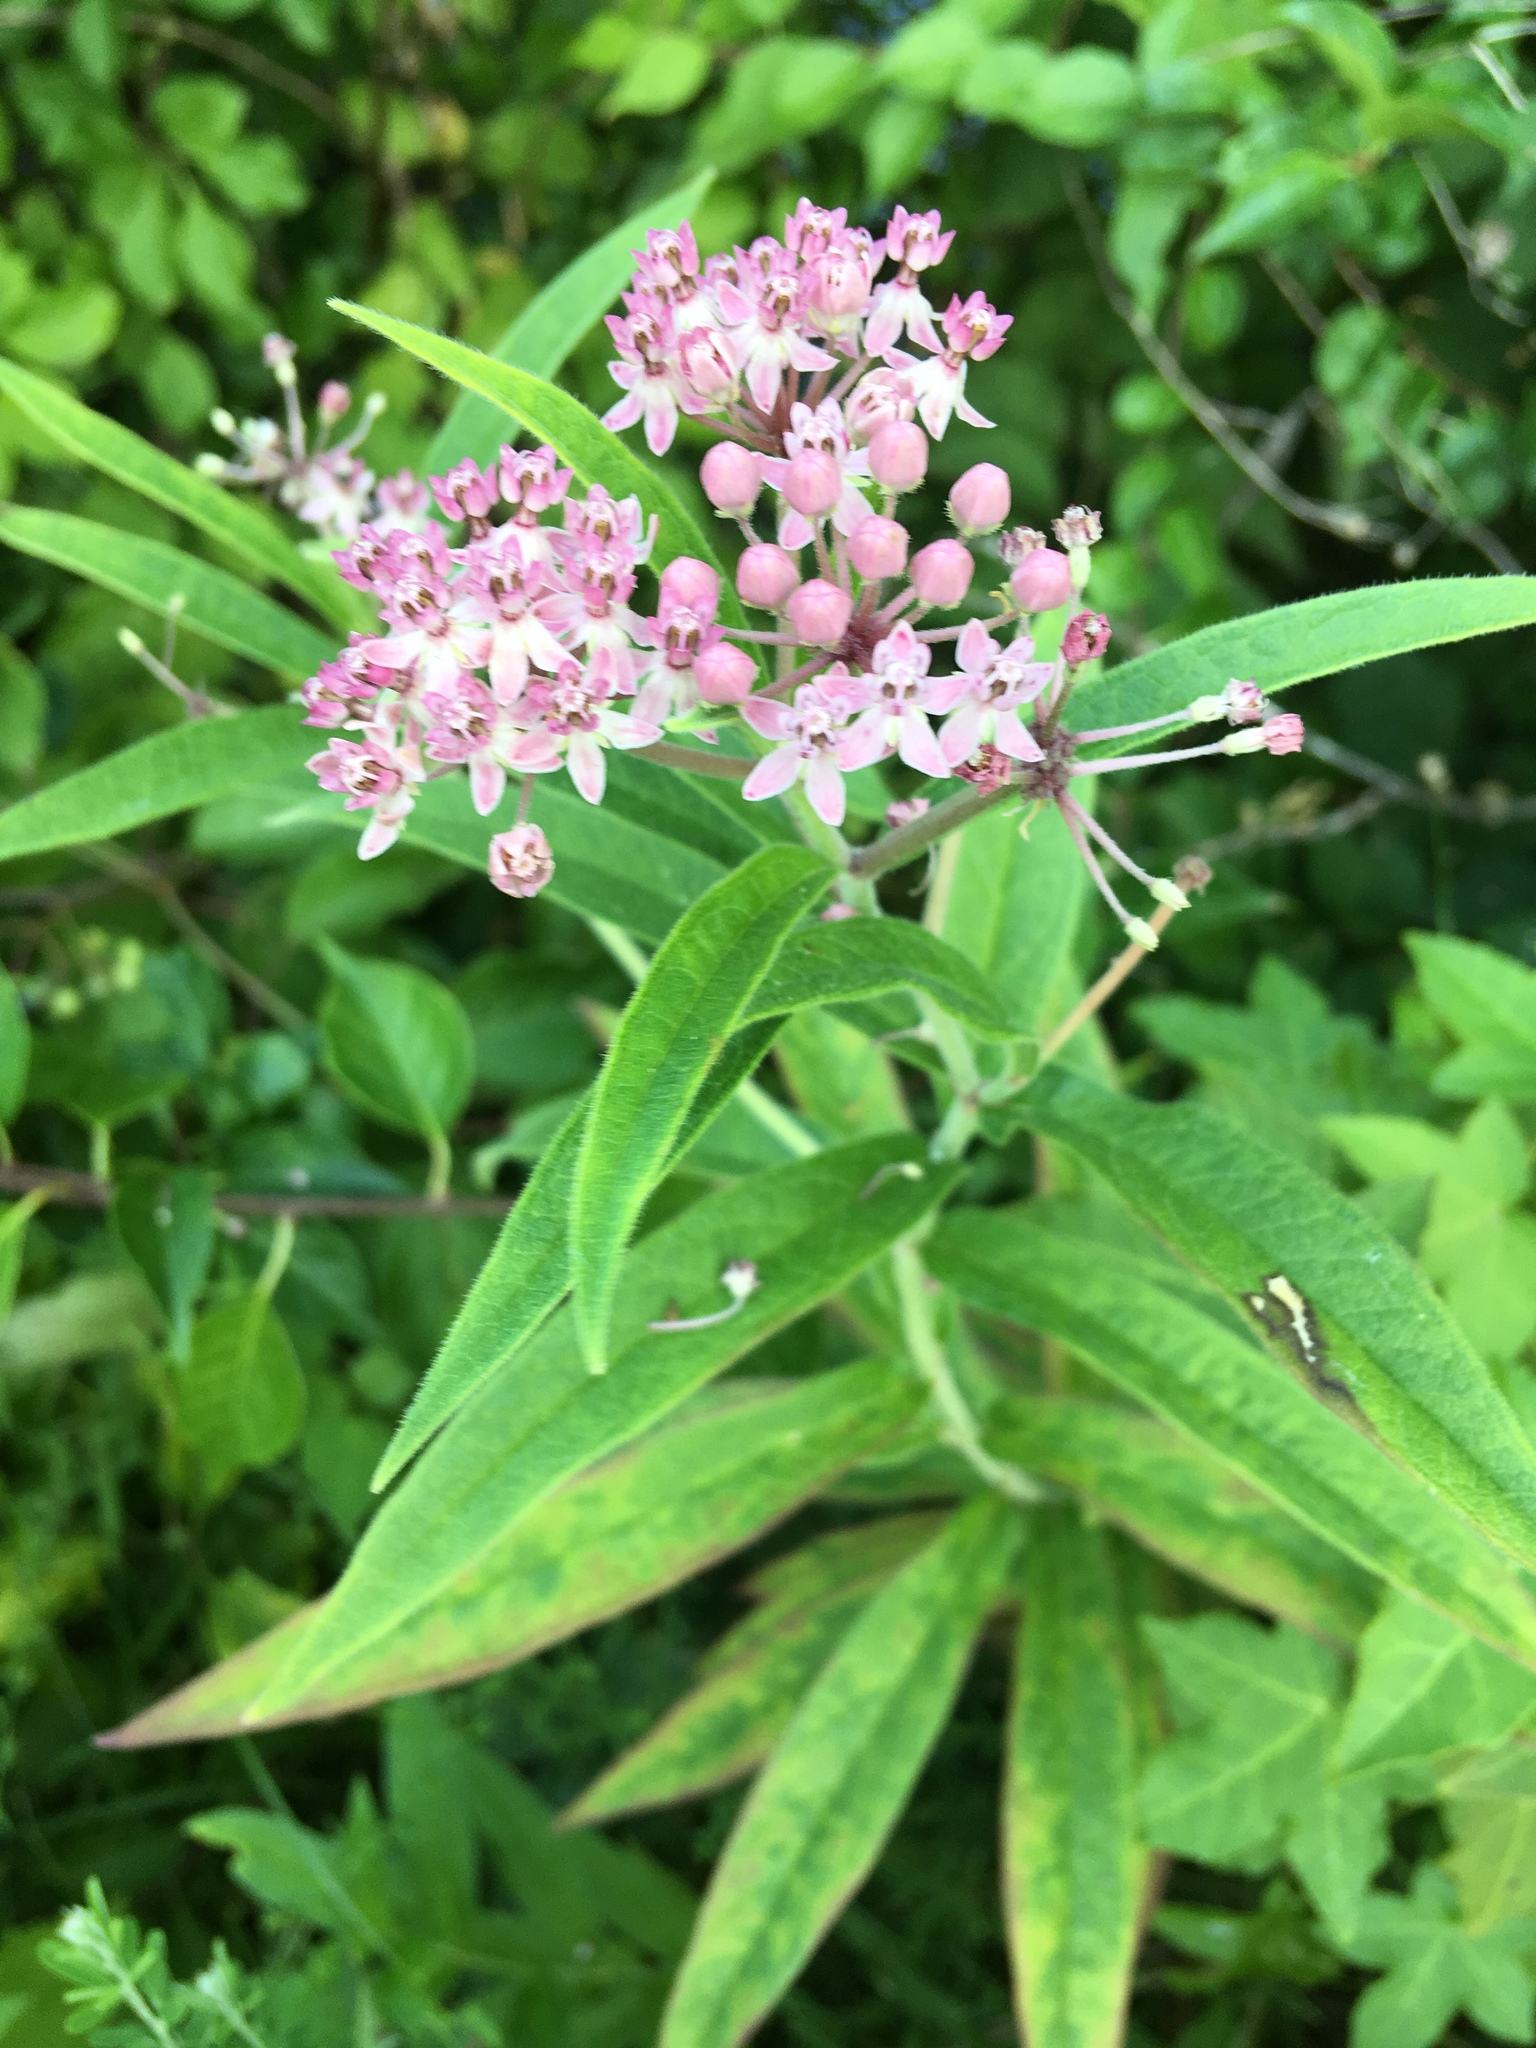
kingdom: Plantae
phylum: Tracheophyta
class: Magnoliopsida
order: Gentianales
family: Apocynaceae
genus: Asclepias
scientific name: Asclepias incarnata
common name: Swamp milkweed
